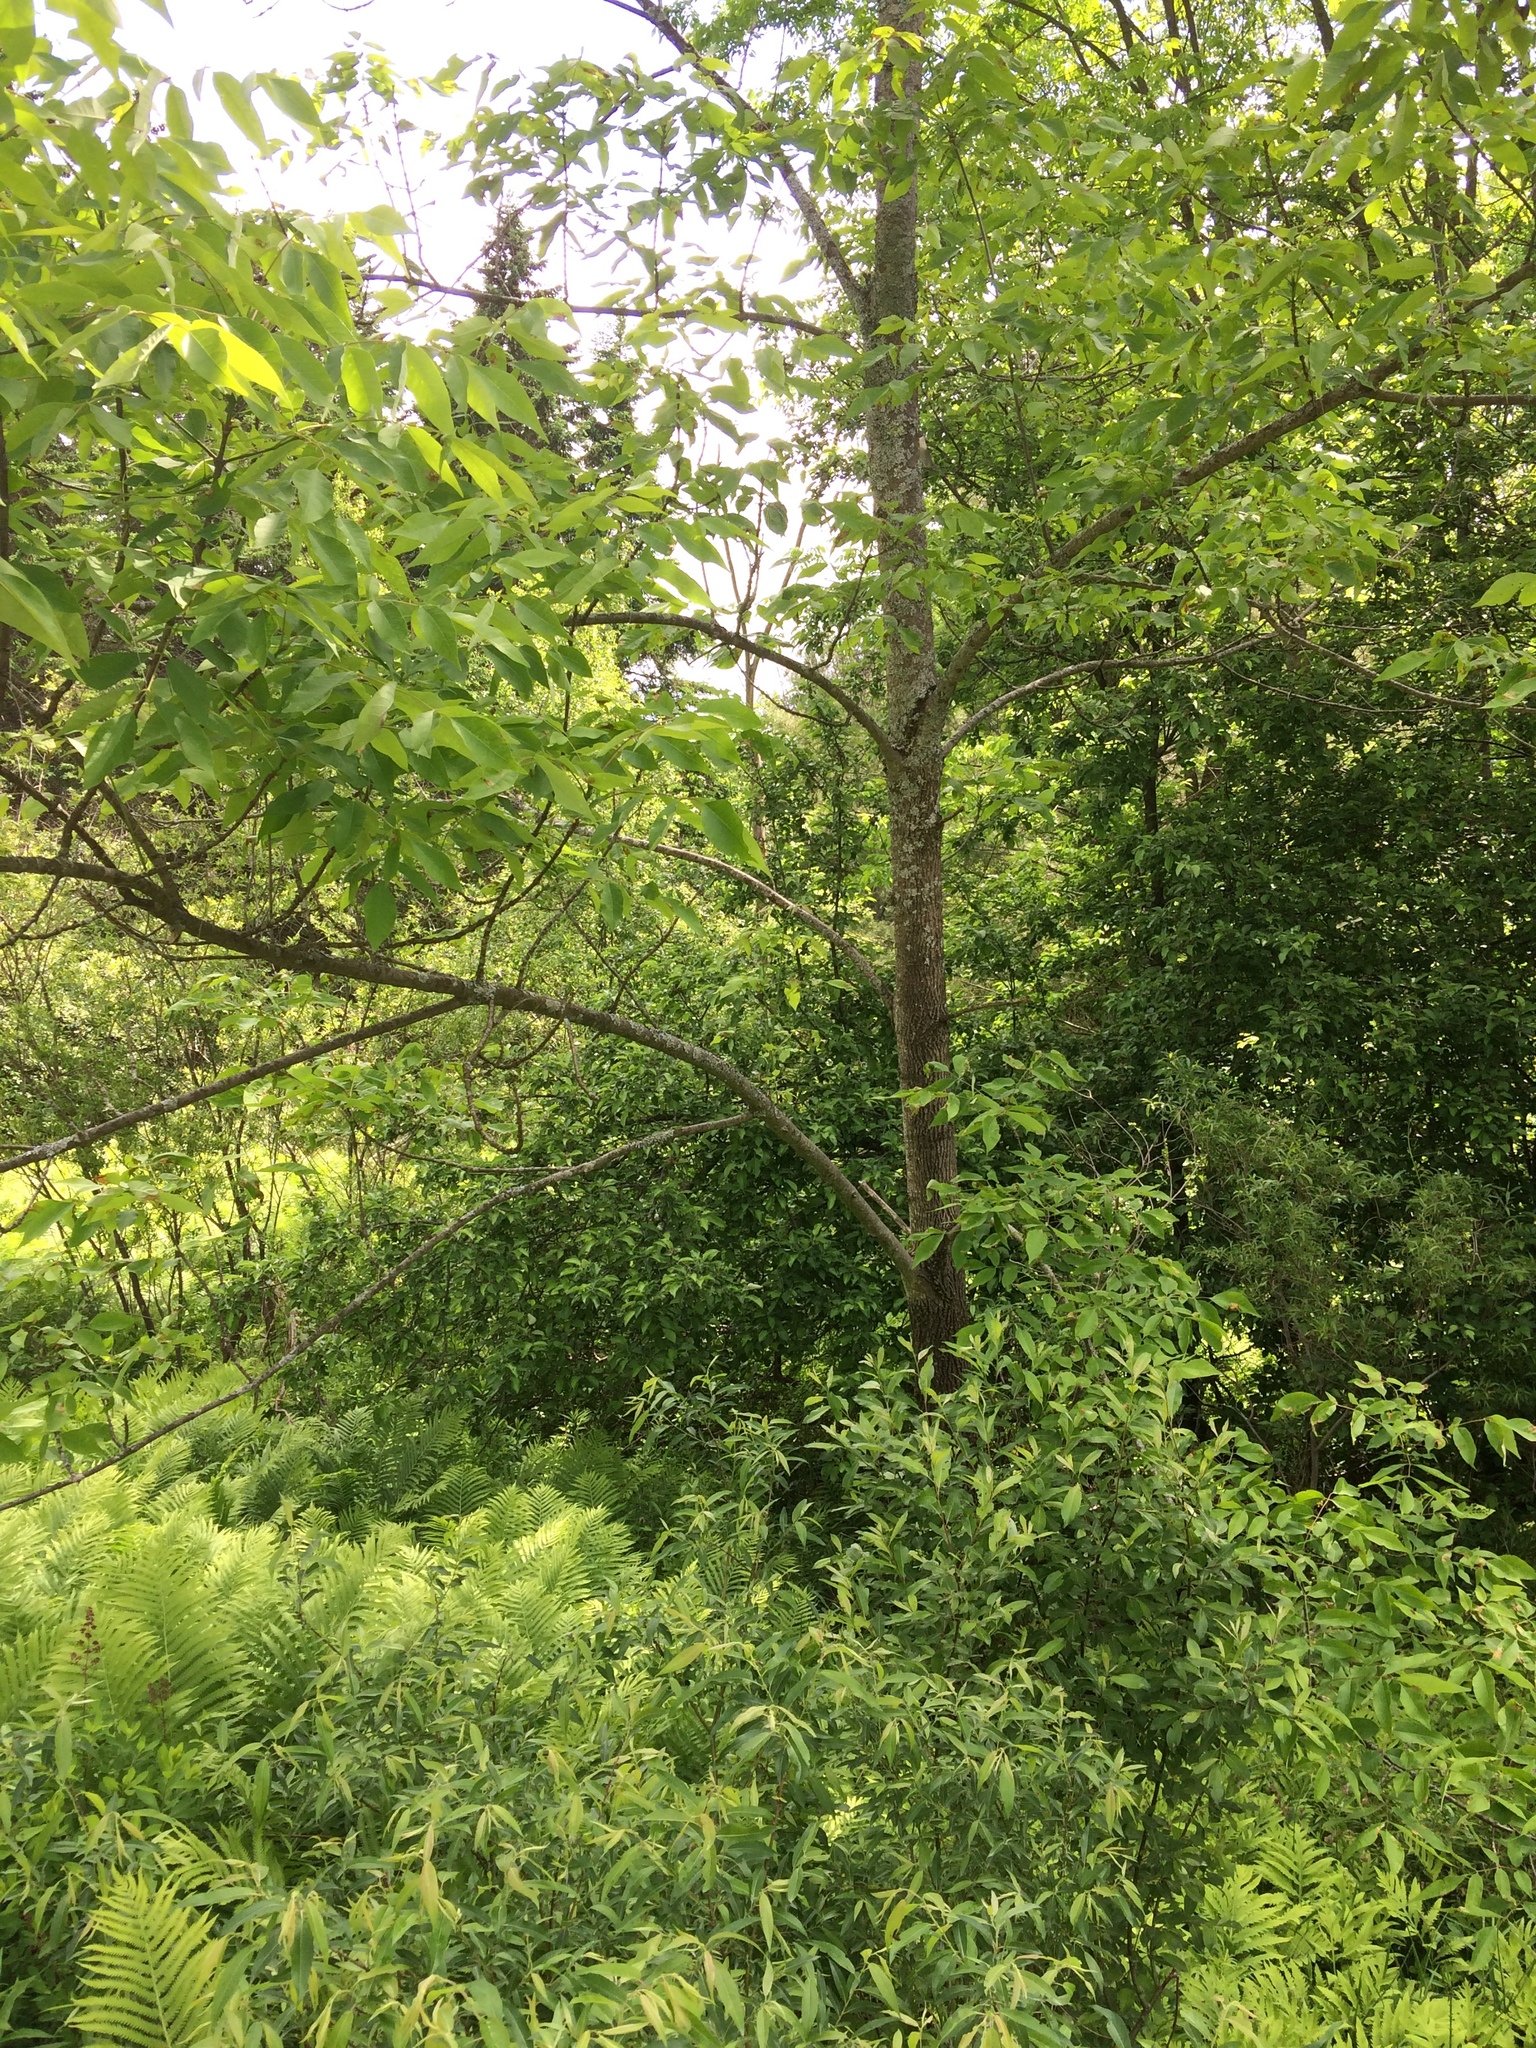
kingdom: Plantae
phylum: Tracheophyta
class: Magnoliopsida
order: Lamiales
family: Oleaceae
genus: Fraxinus
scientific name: Fraxinus americana
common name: White ash
